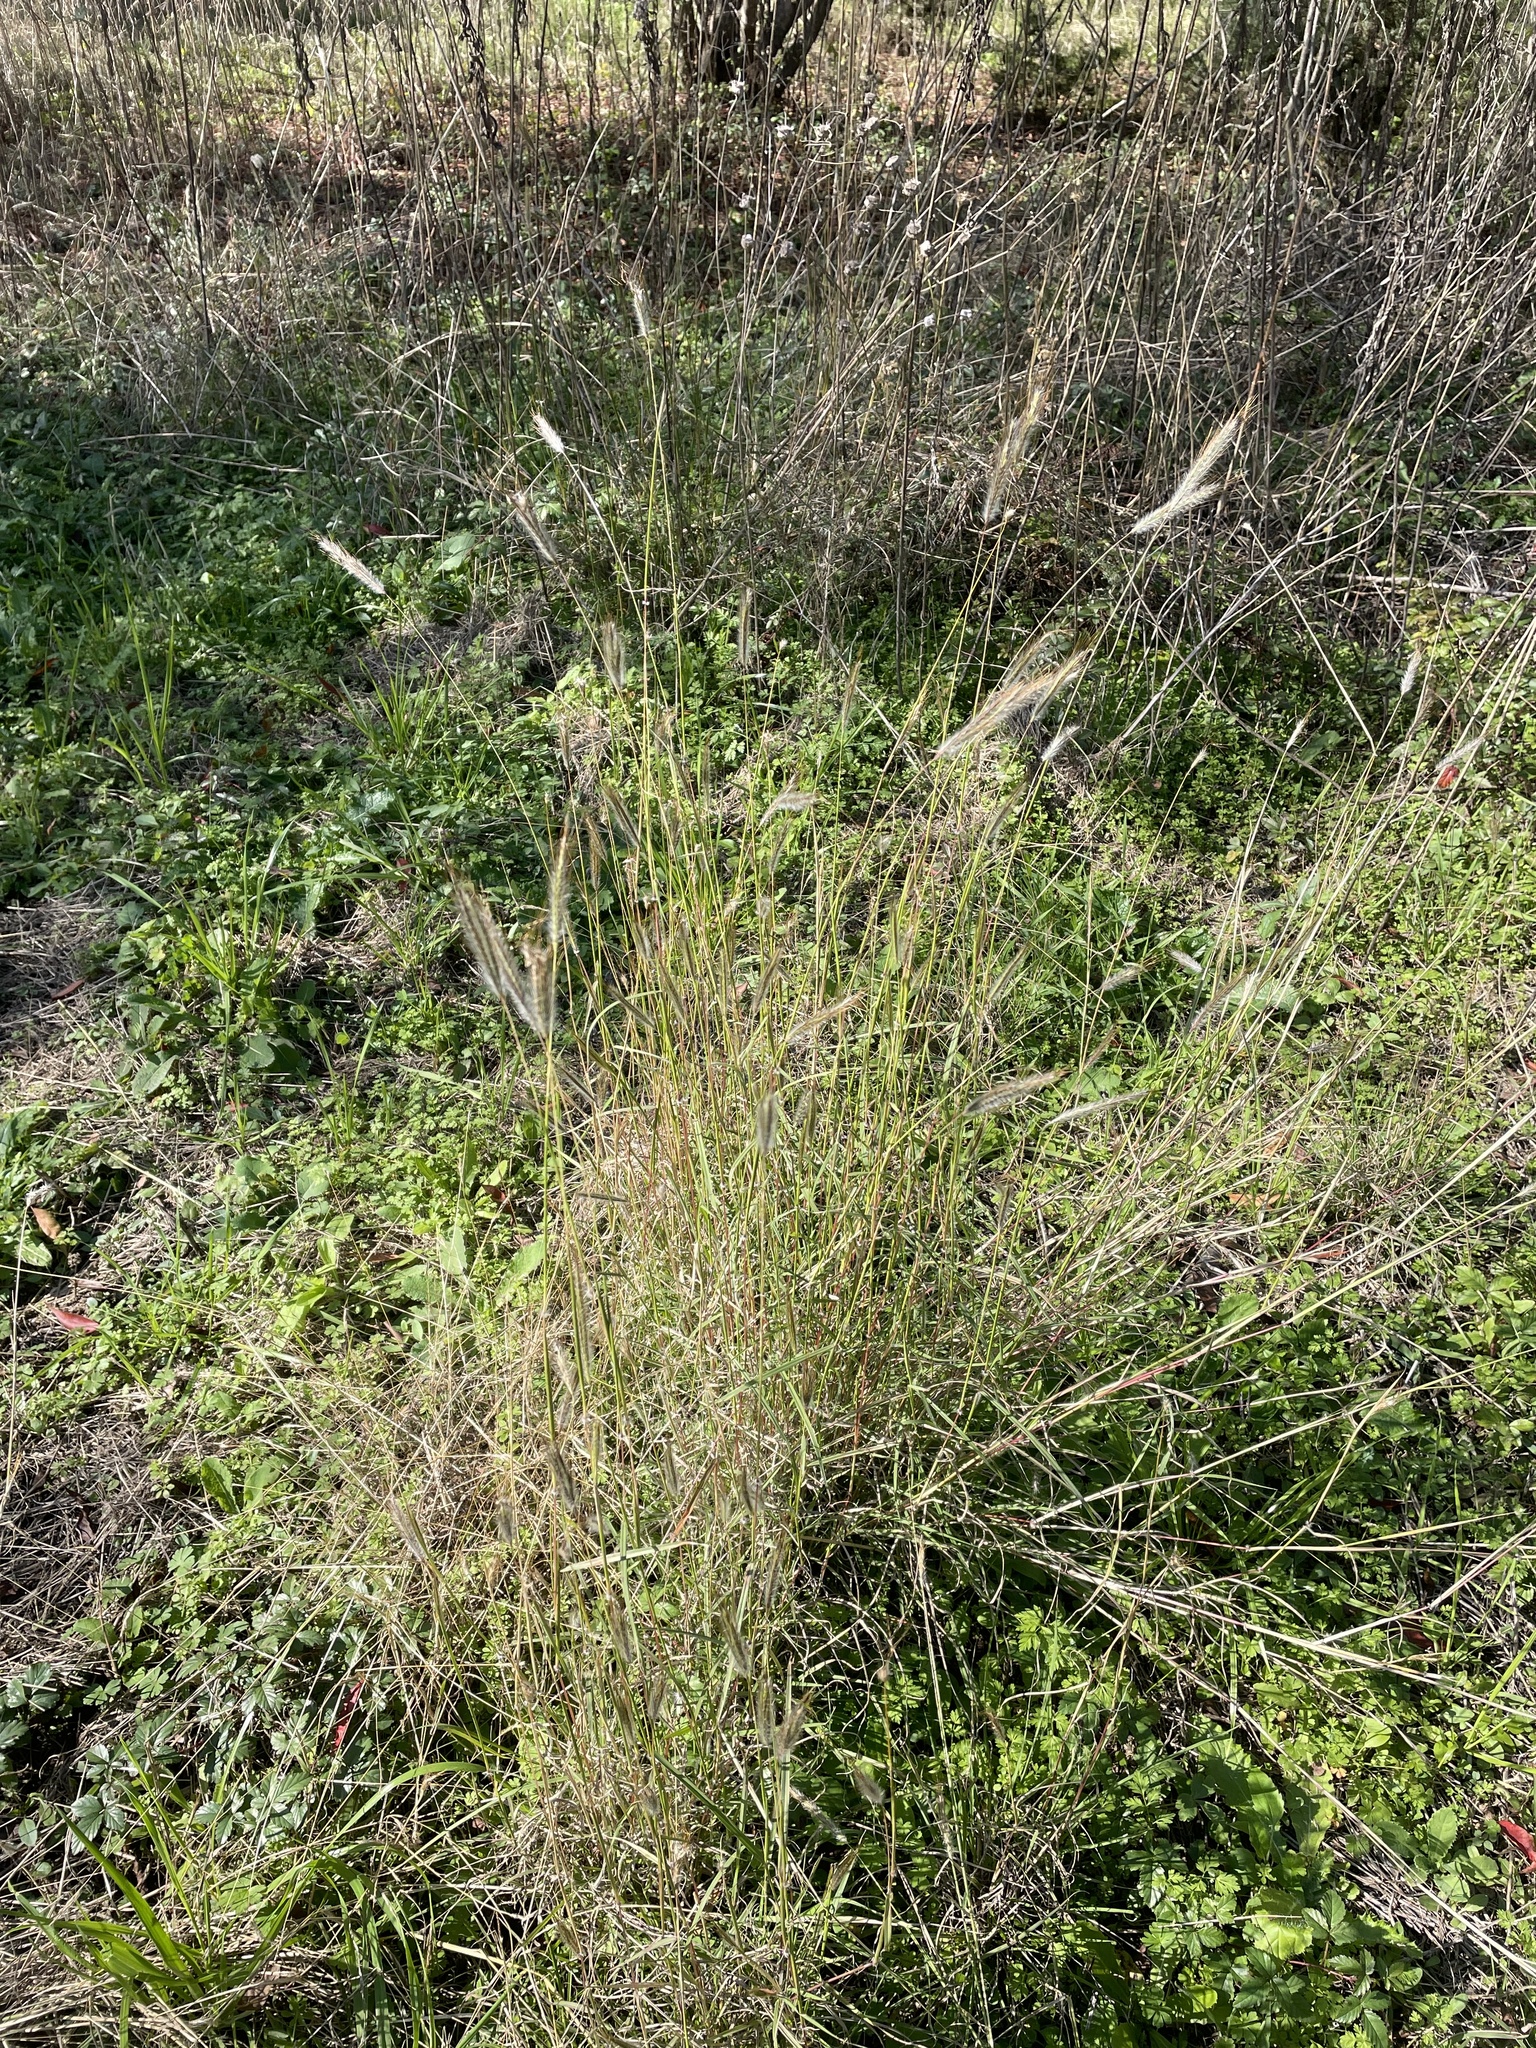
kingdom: Plantae
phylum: Tracheophyta
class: Liliopsida
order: Poales
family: Poaceae
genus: Dichanthium
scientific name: Dichanthium sericeum
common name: Silky bluestem
